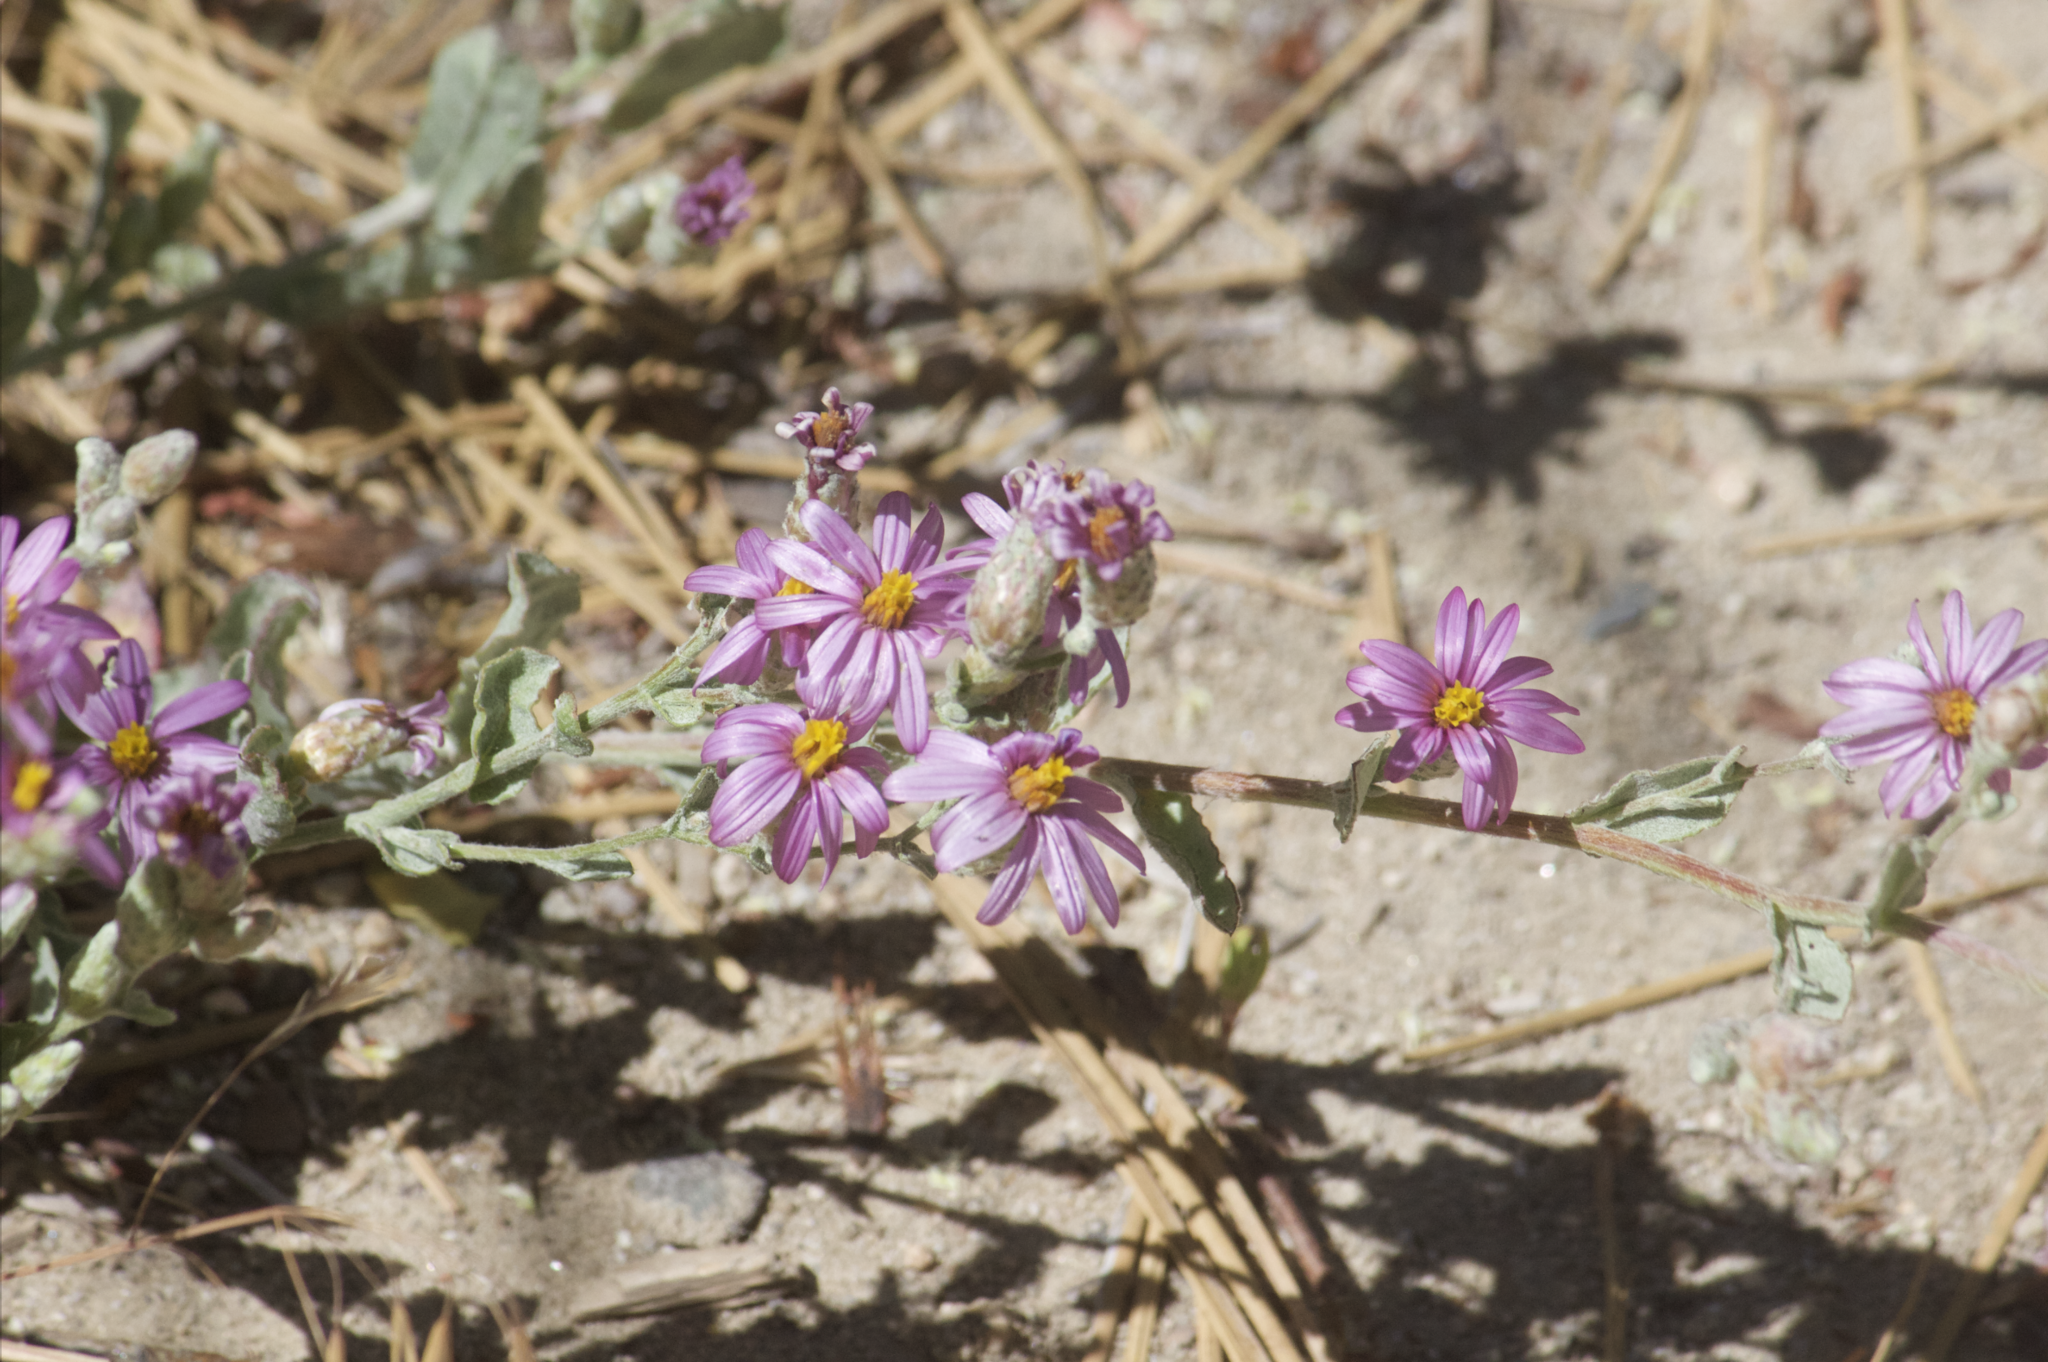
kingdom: Plantae
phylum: Tracheophyta
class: Magnoliopsida
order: Asterales
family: Asteraceae
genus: Corethrogyne
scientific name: Corethrogyne filaginifolia
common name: Sand-aster
